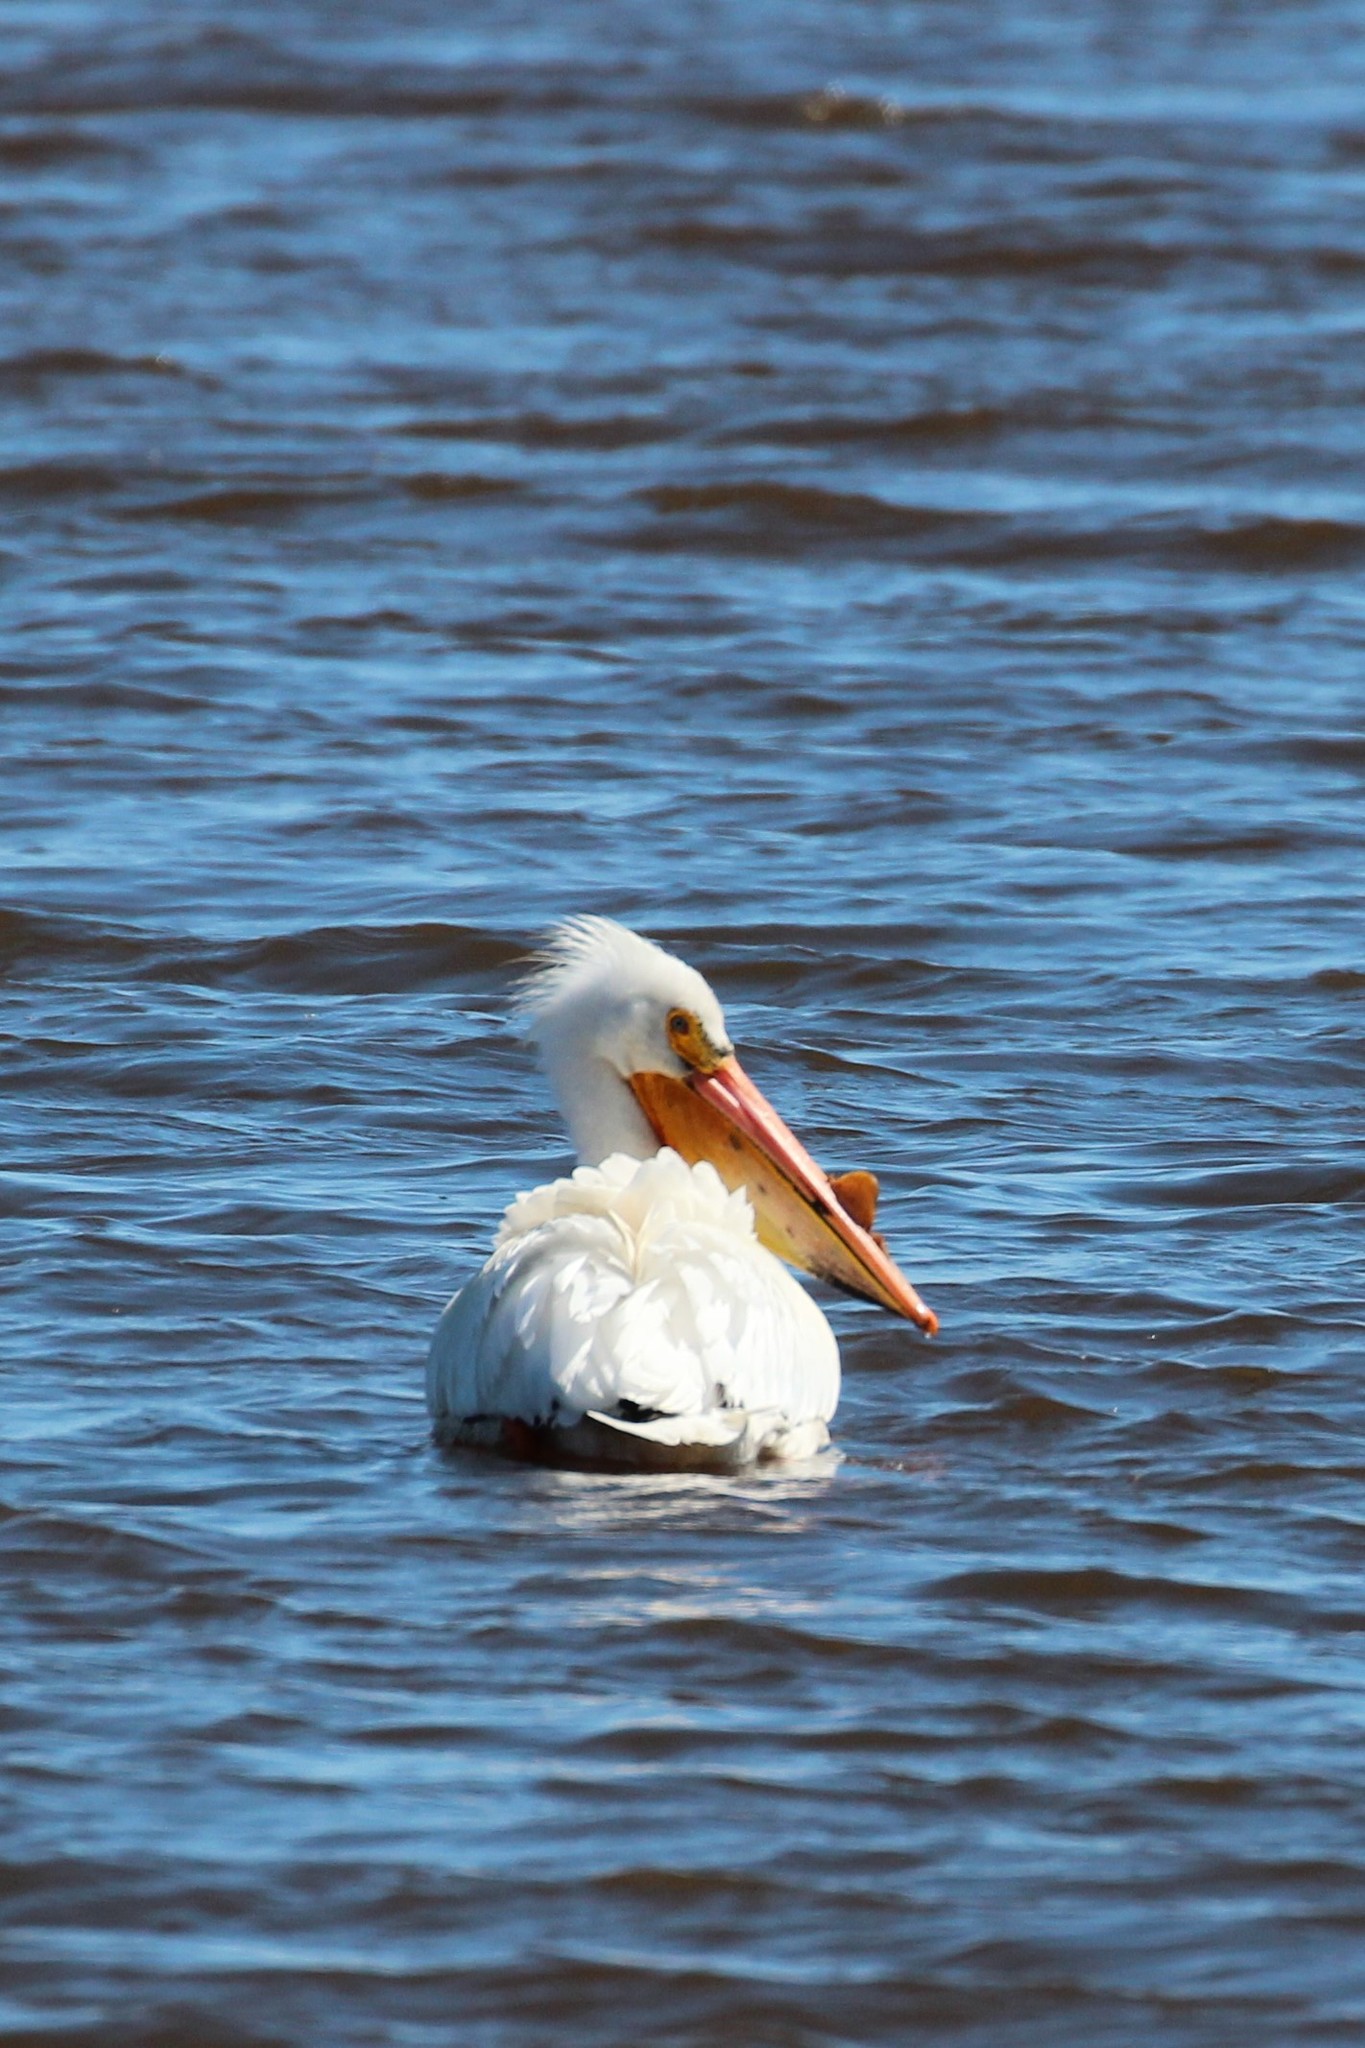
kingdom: Animalia
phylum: Chordata
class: Aves
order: Pelecaniformes
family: Pelecanidae
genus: Pelecanus
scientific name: Pelecanus erythrorhynchos
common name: American white pelican
